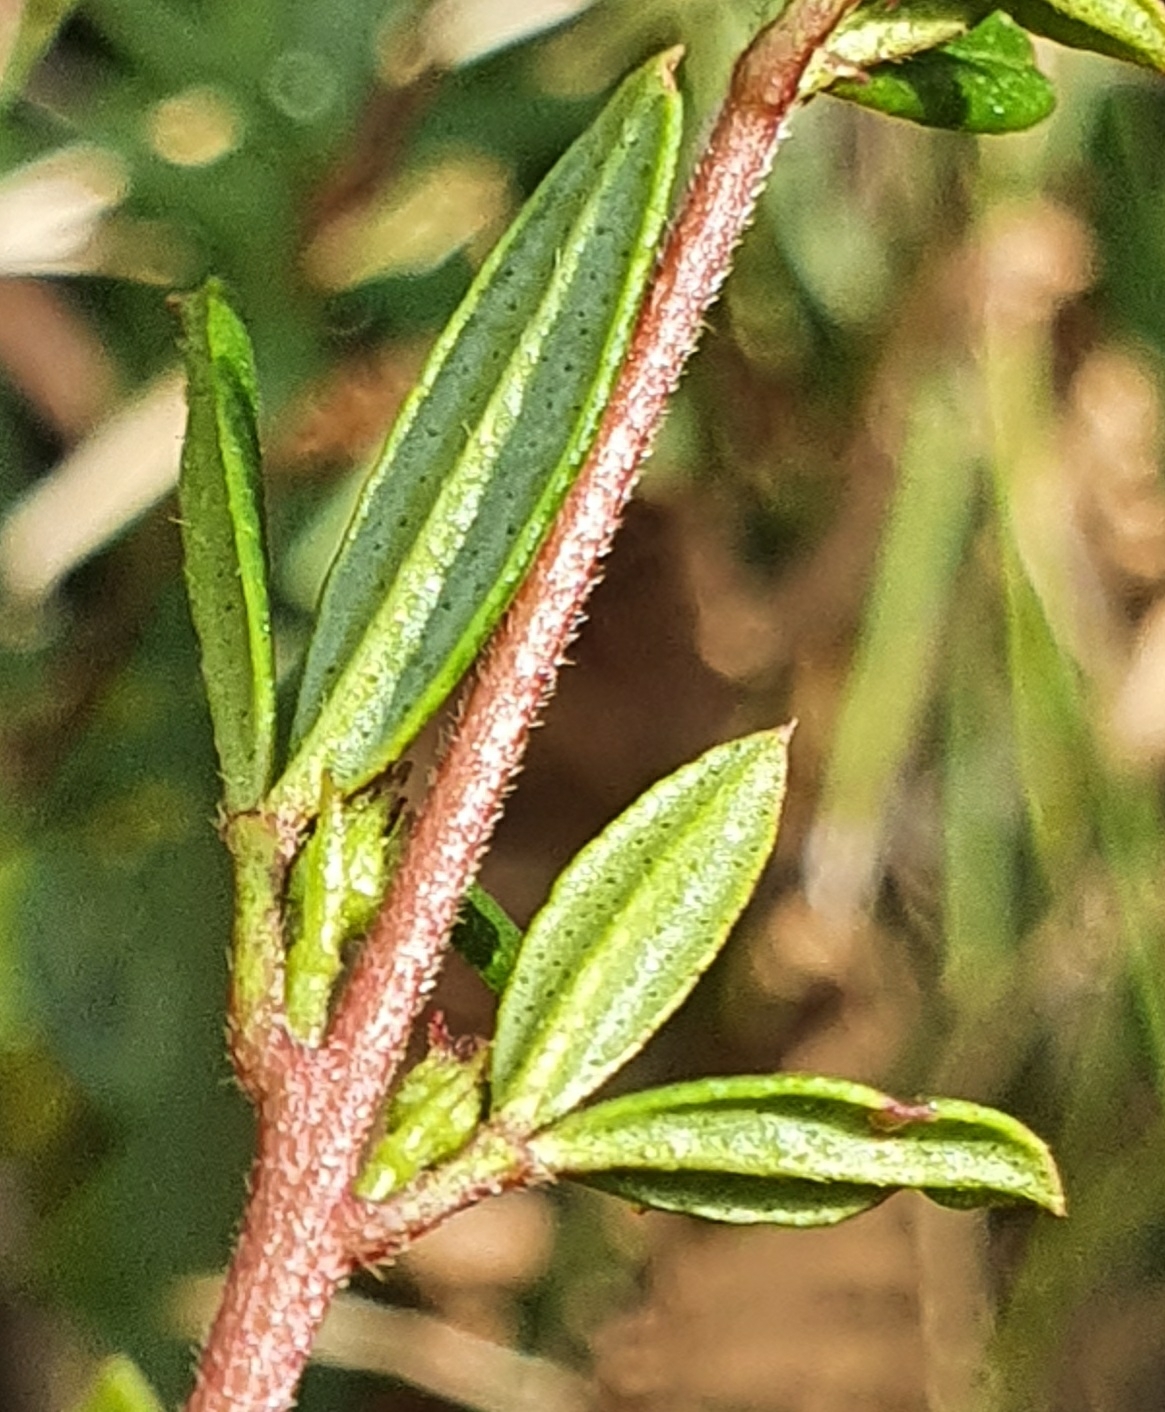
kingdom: Plantae
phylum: Tracheophyta
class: Magnoliopsida
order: Sapindales
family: Rutaceae
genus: Zieria
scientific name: Zieria pilosa
